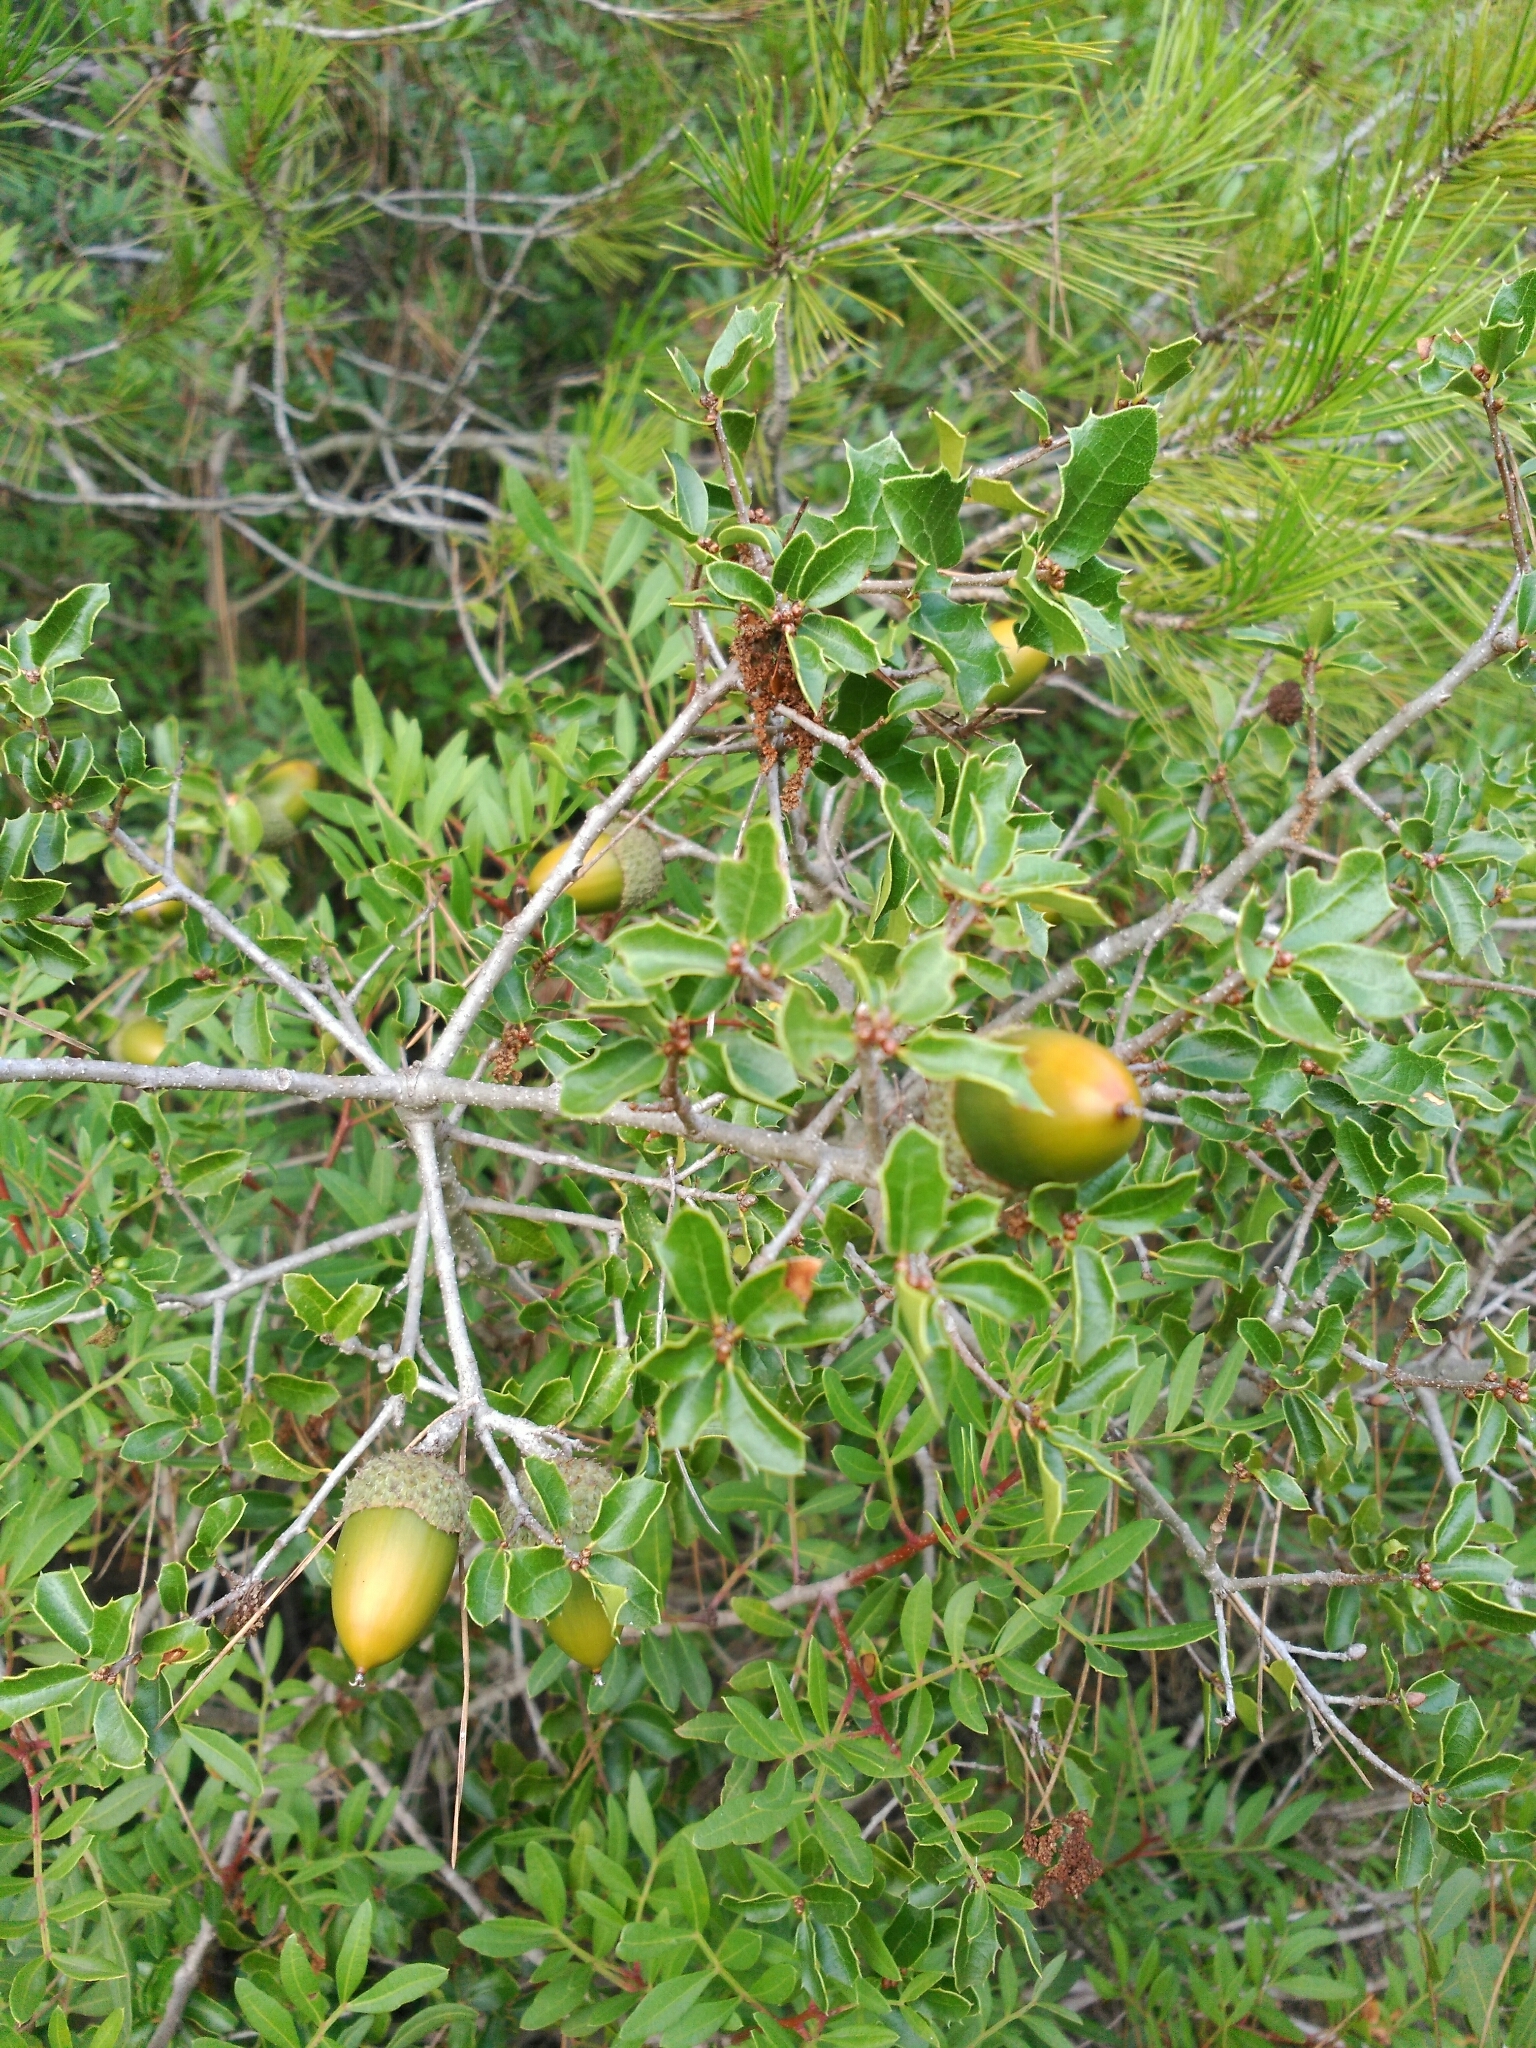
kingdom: Plantae
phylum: Tracheophyta
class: Magnoliopsida
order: Fagales
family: Fagaceae
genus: Quercus
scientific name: Quercus coccifera
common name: Kermes oak
